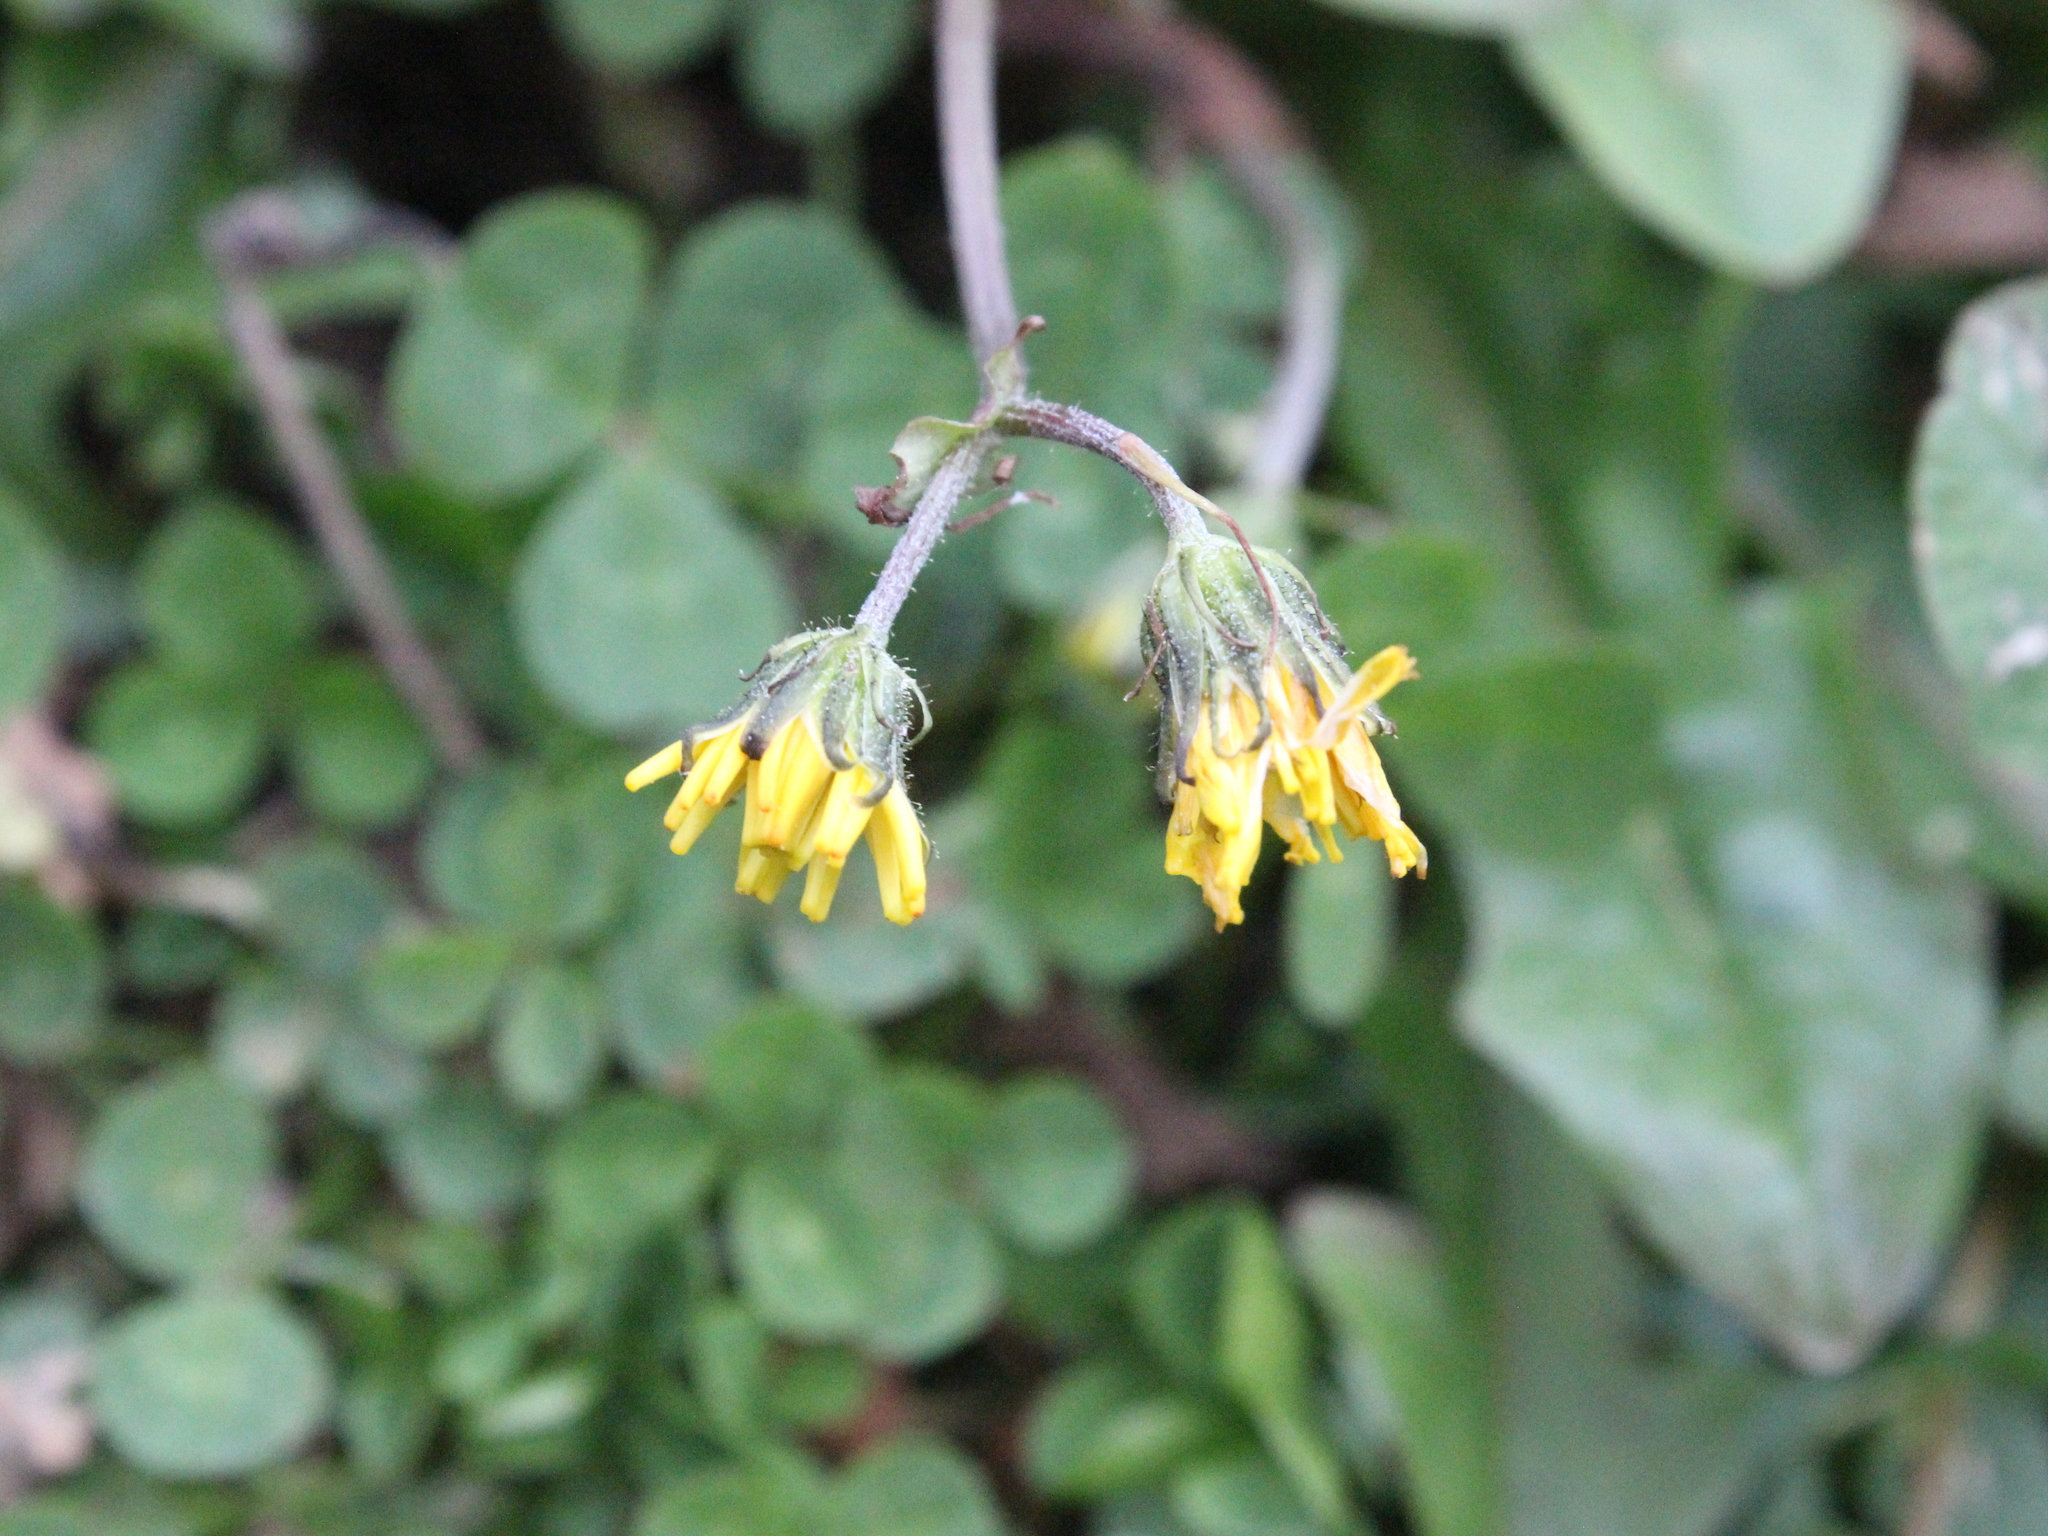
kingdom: Plantae
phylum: Tracheophyta
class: Magnoliopsida
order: Asterales
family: Asteraceae
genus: Crepis
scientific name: Crepis capillaris
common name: Smooth hawksbeard
